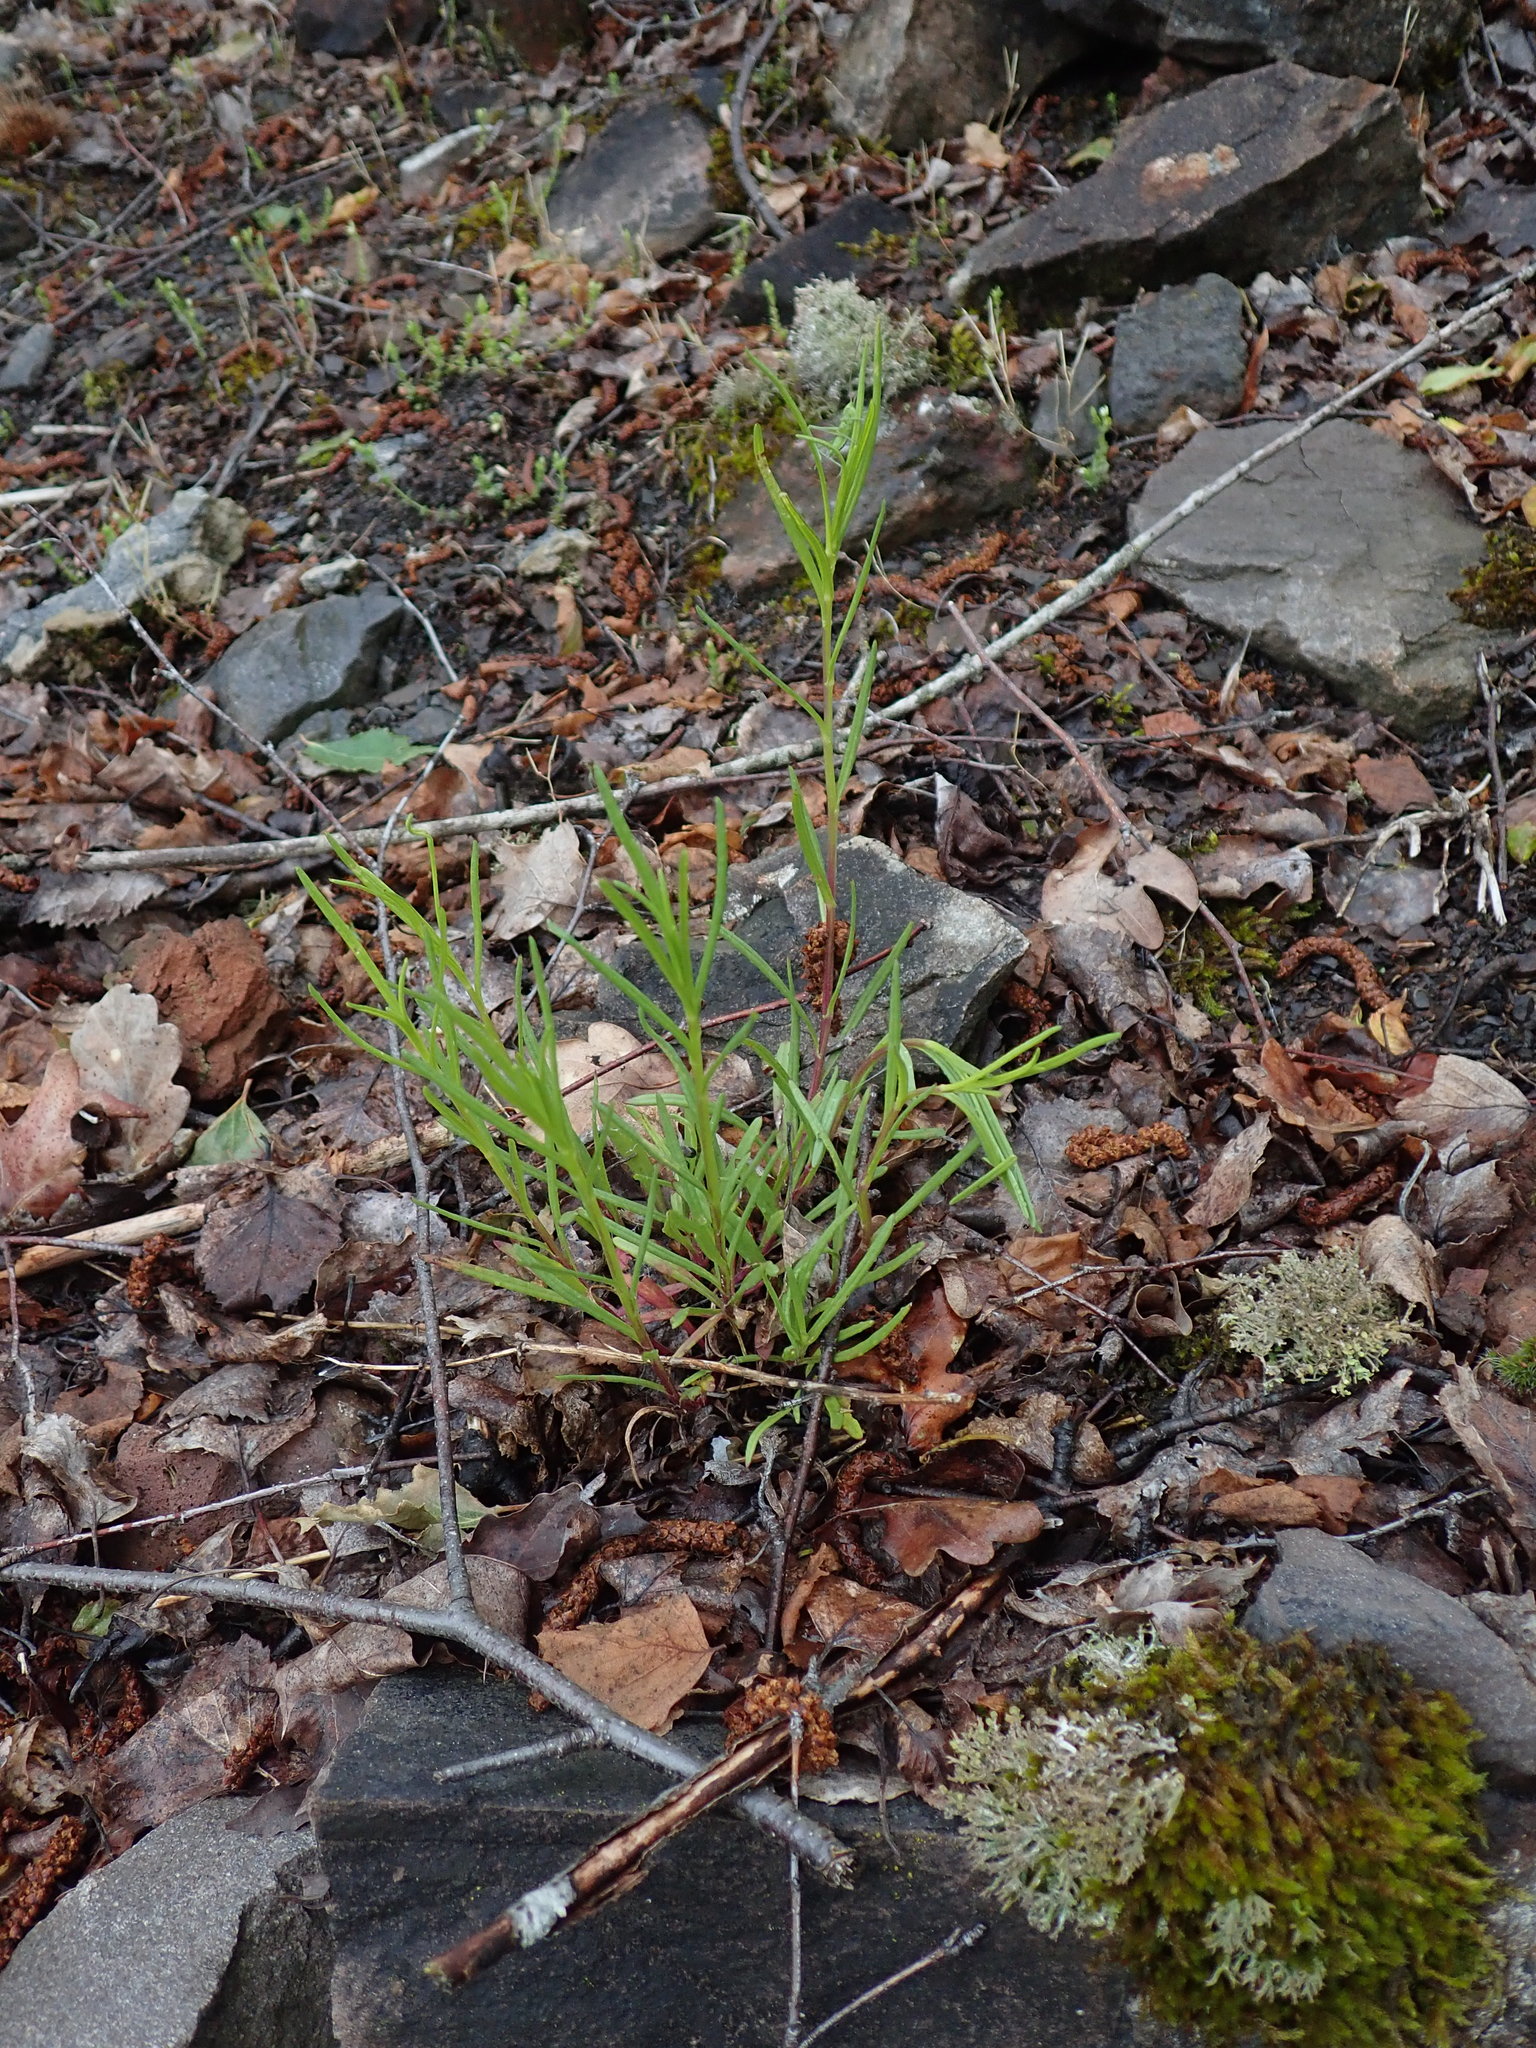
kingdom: Plantae
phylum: Tracheophyta
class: Magnoliopsida
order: Asterales
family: Asteraceae
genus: Senecio
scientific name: Senecio inaequidens
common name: Narrow-leaved ragwort
